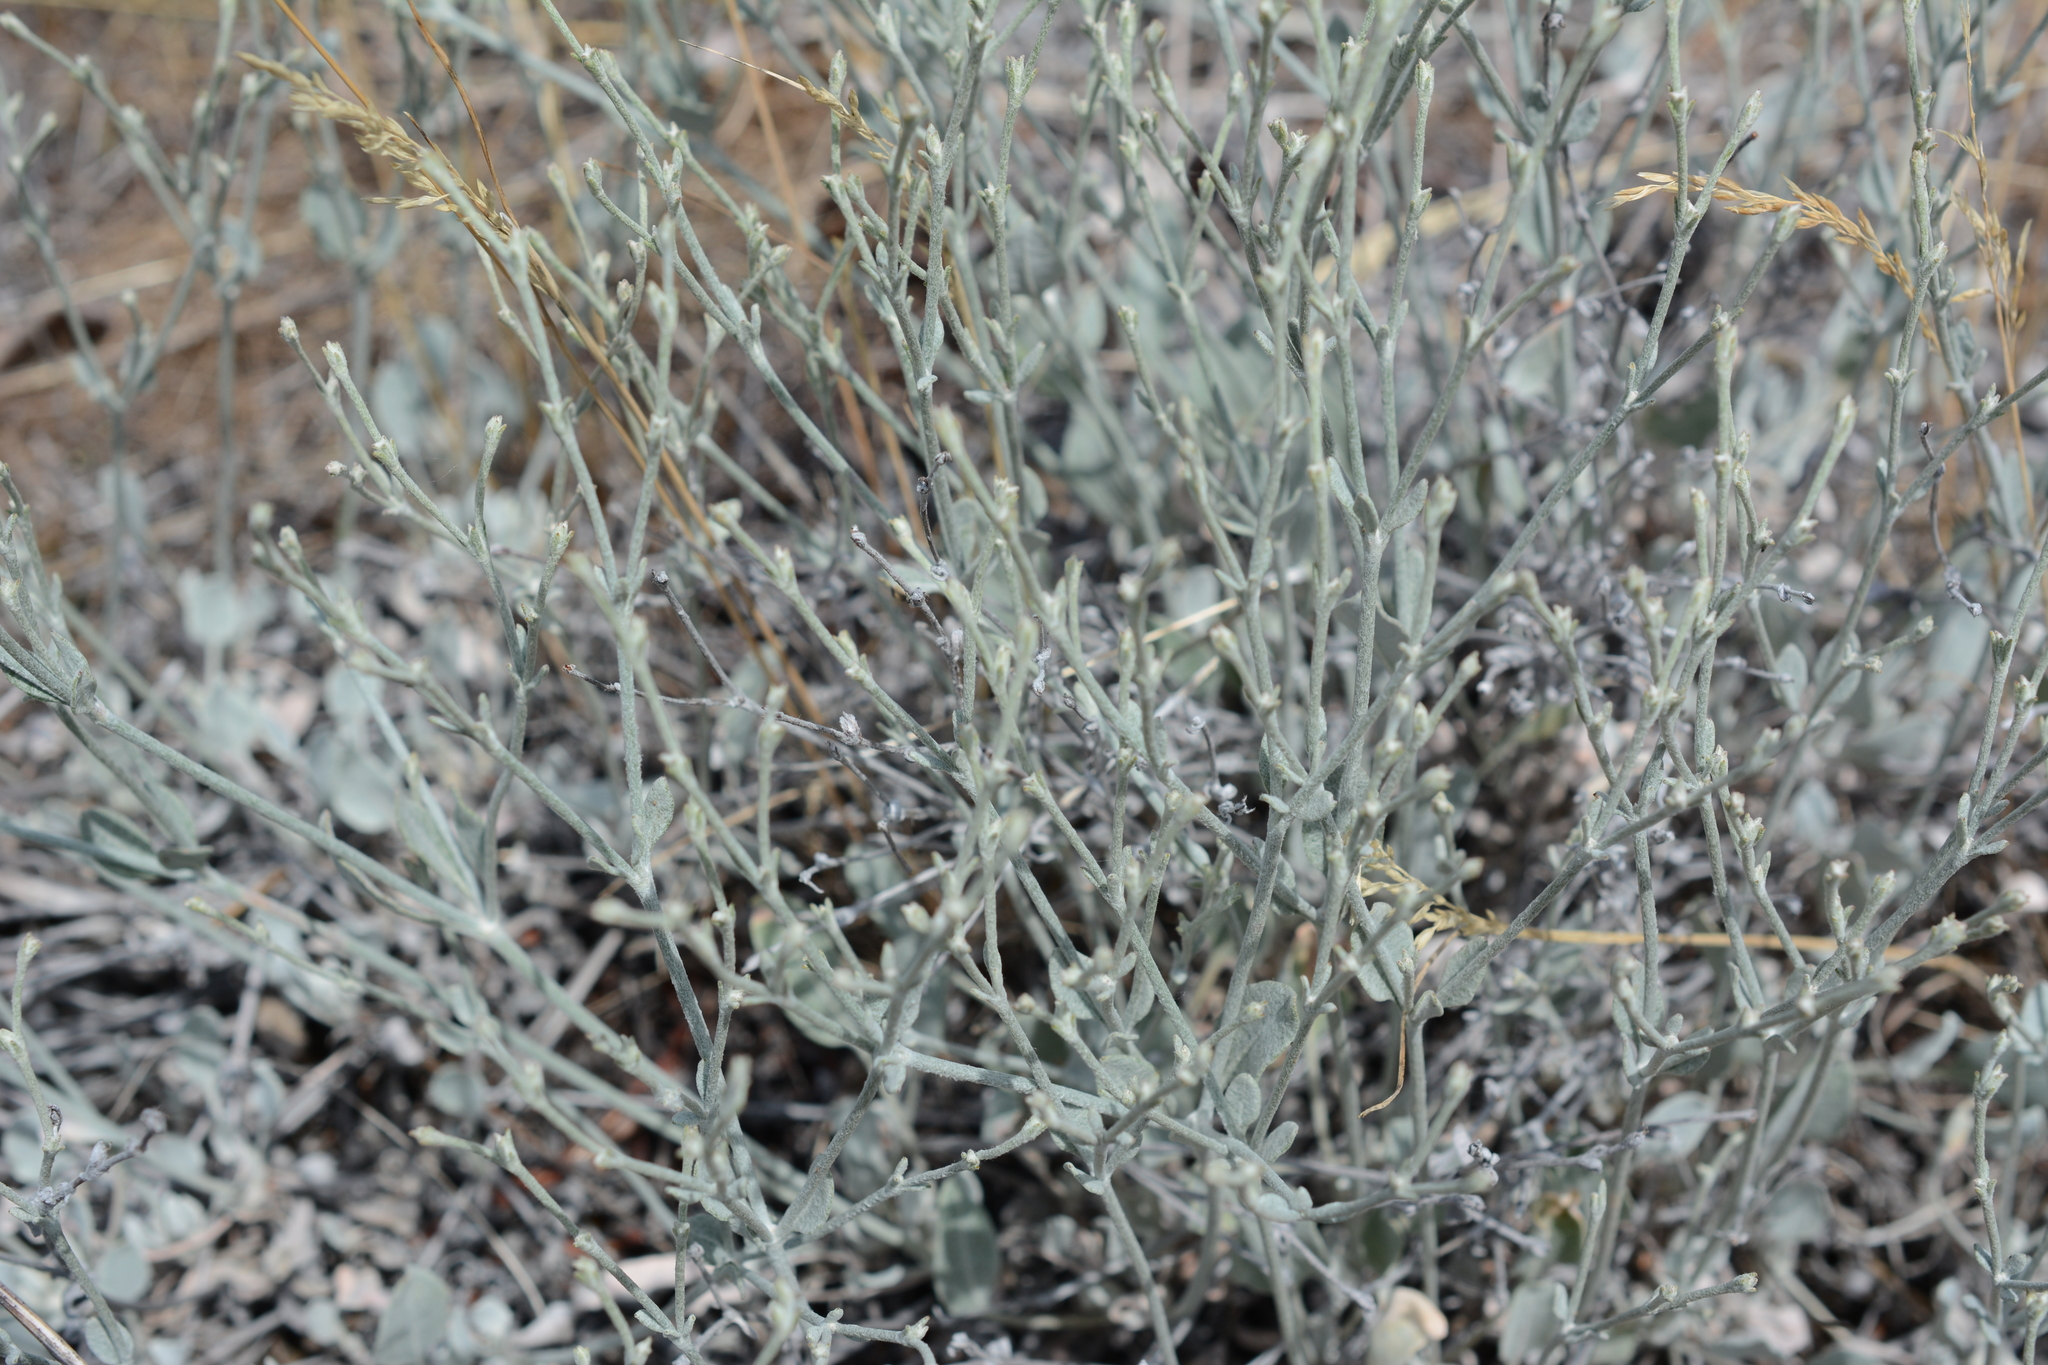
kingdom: Plantae
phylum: Tracheophyta
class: Magnoliopsida
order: Caryophyllales
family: Polygonaceae
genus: Eriogonum
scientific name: Eriogonum niveum
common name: Snow wild buckwheat
